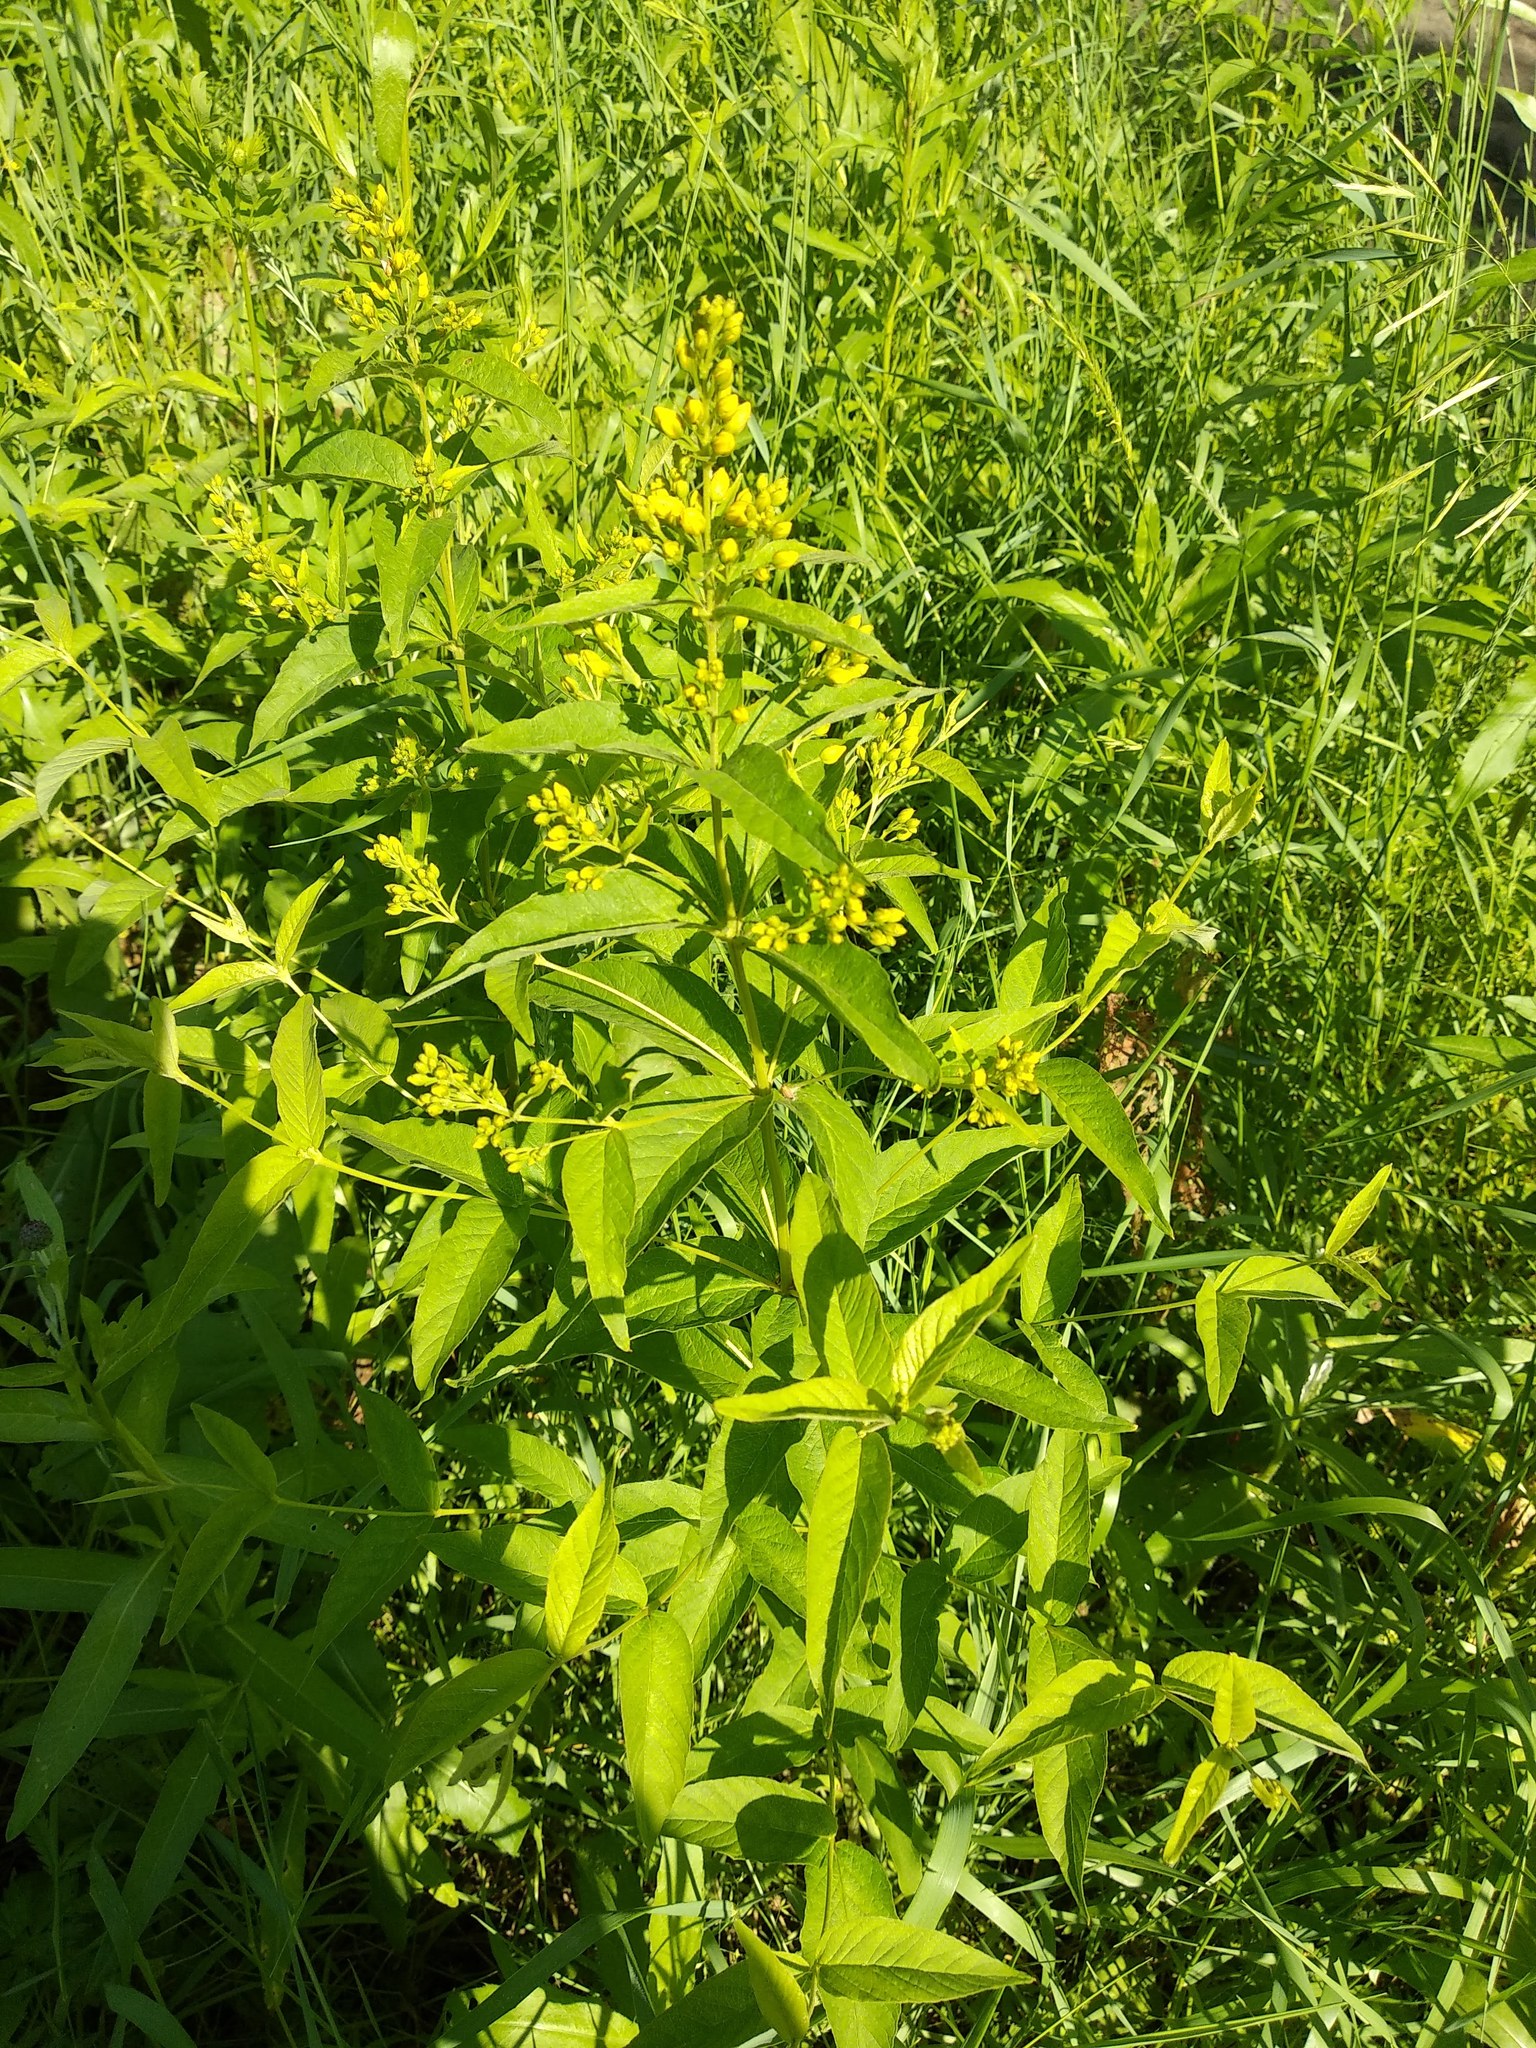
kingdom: Plantae
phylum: Tracheophyta
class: Magnoliopsida
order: Ericales
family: Primulaceae
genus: Lysimachia
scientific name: Lysimachia vulgaris
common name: Yellow loosestrife
